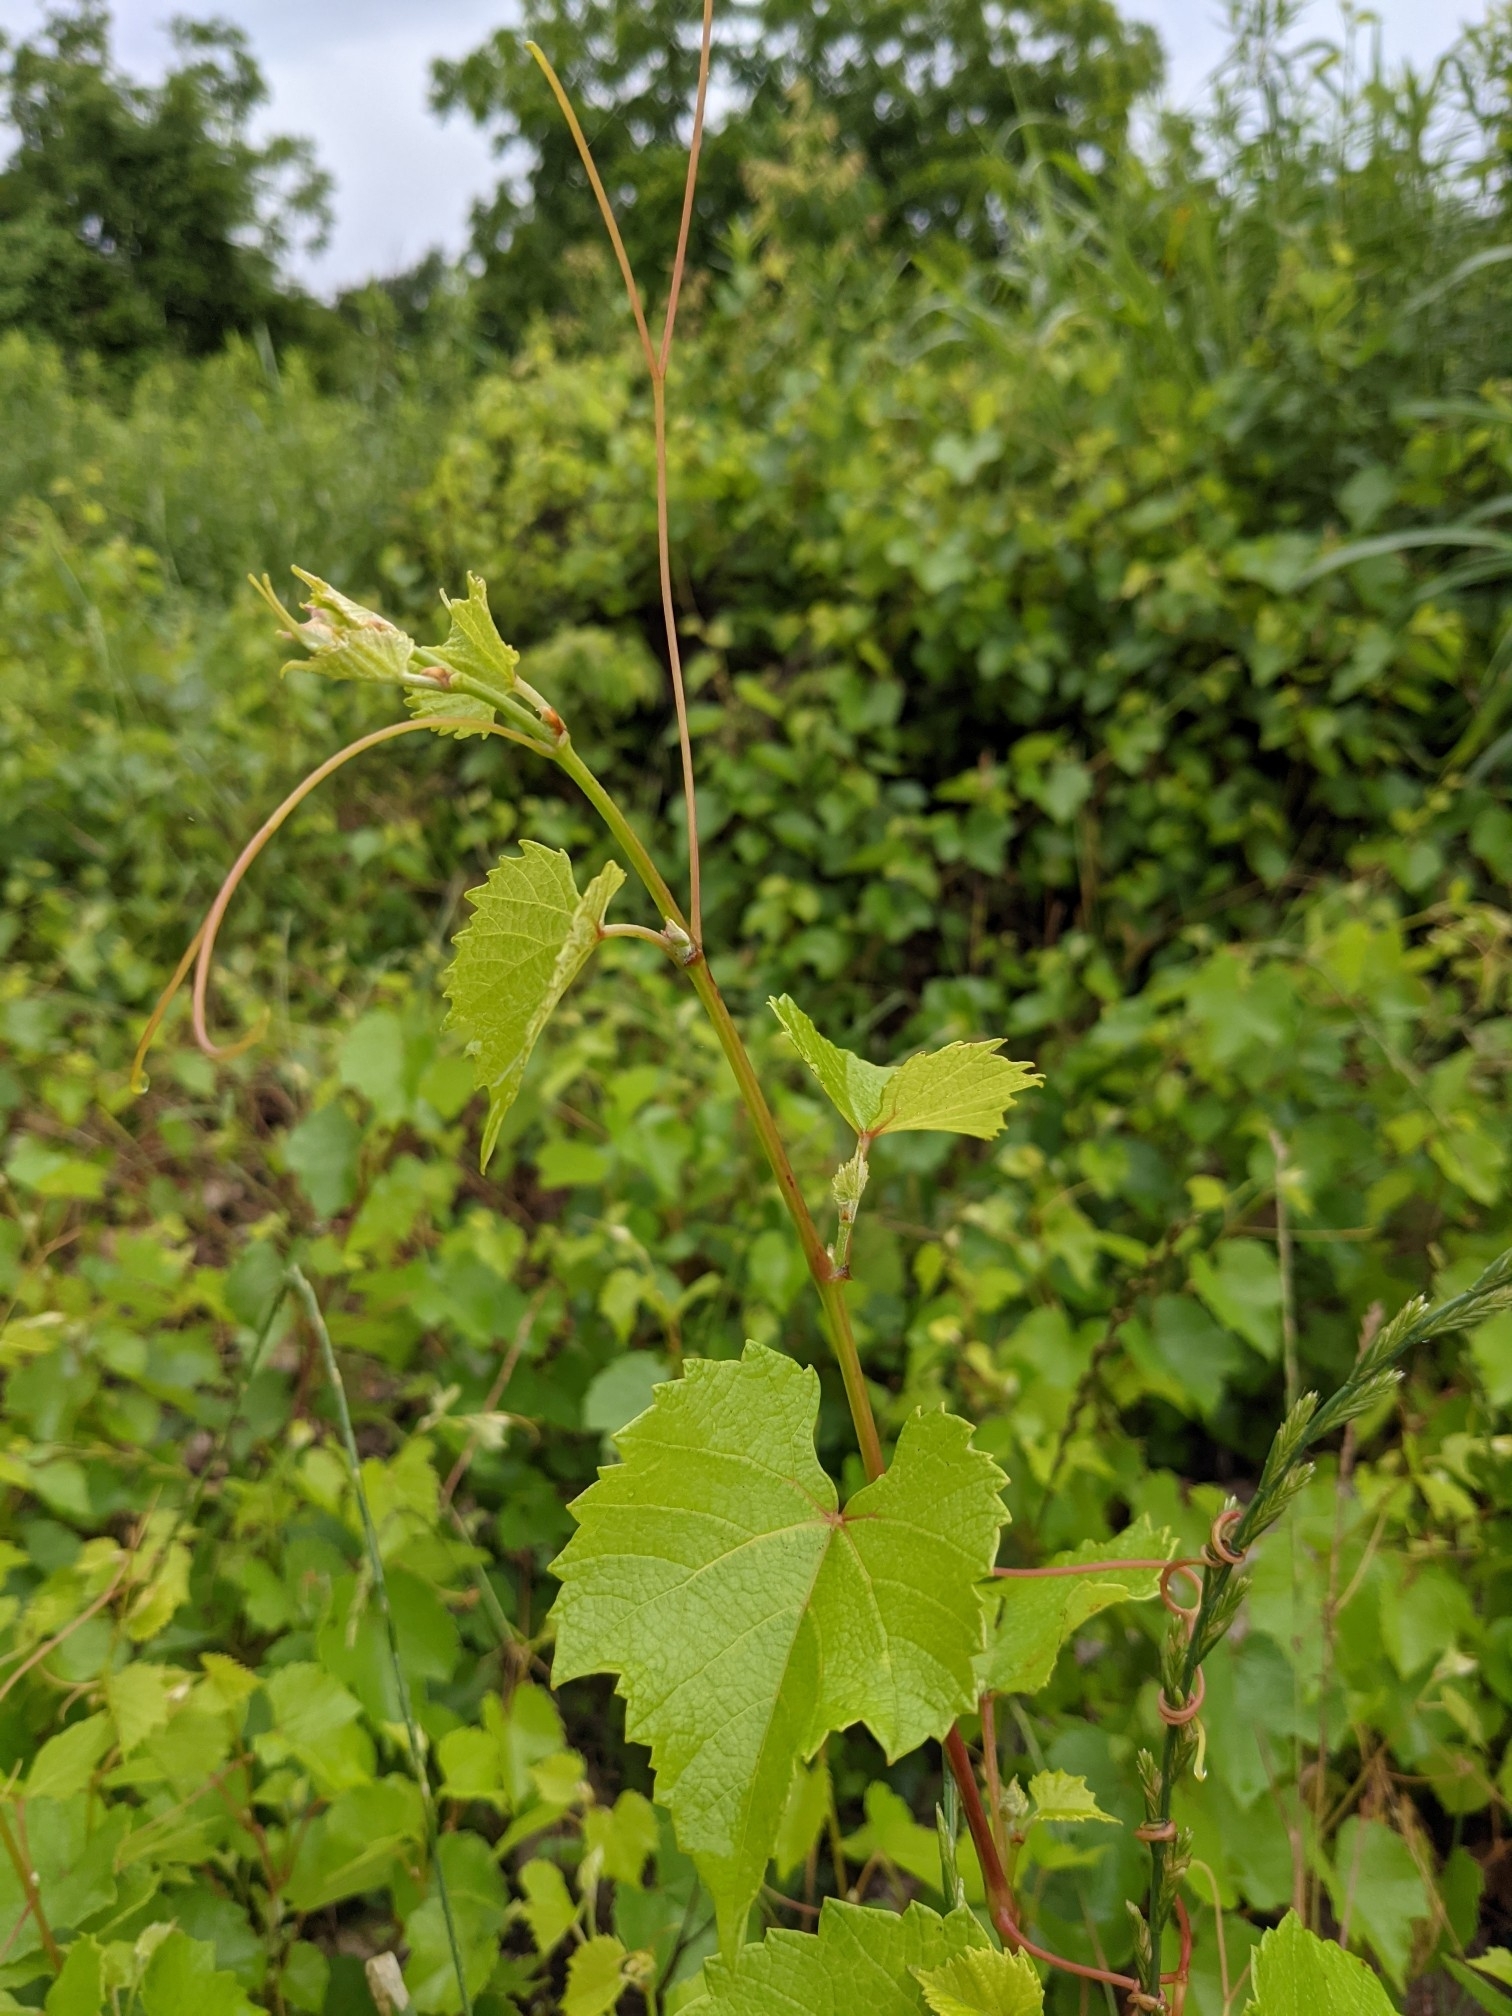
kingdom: Plantae
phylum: Tracheophyta
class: Magnoliopsida
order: Vitales
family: Vitaceae
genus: Vitis
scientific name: Vitis champinii
